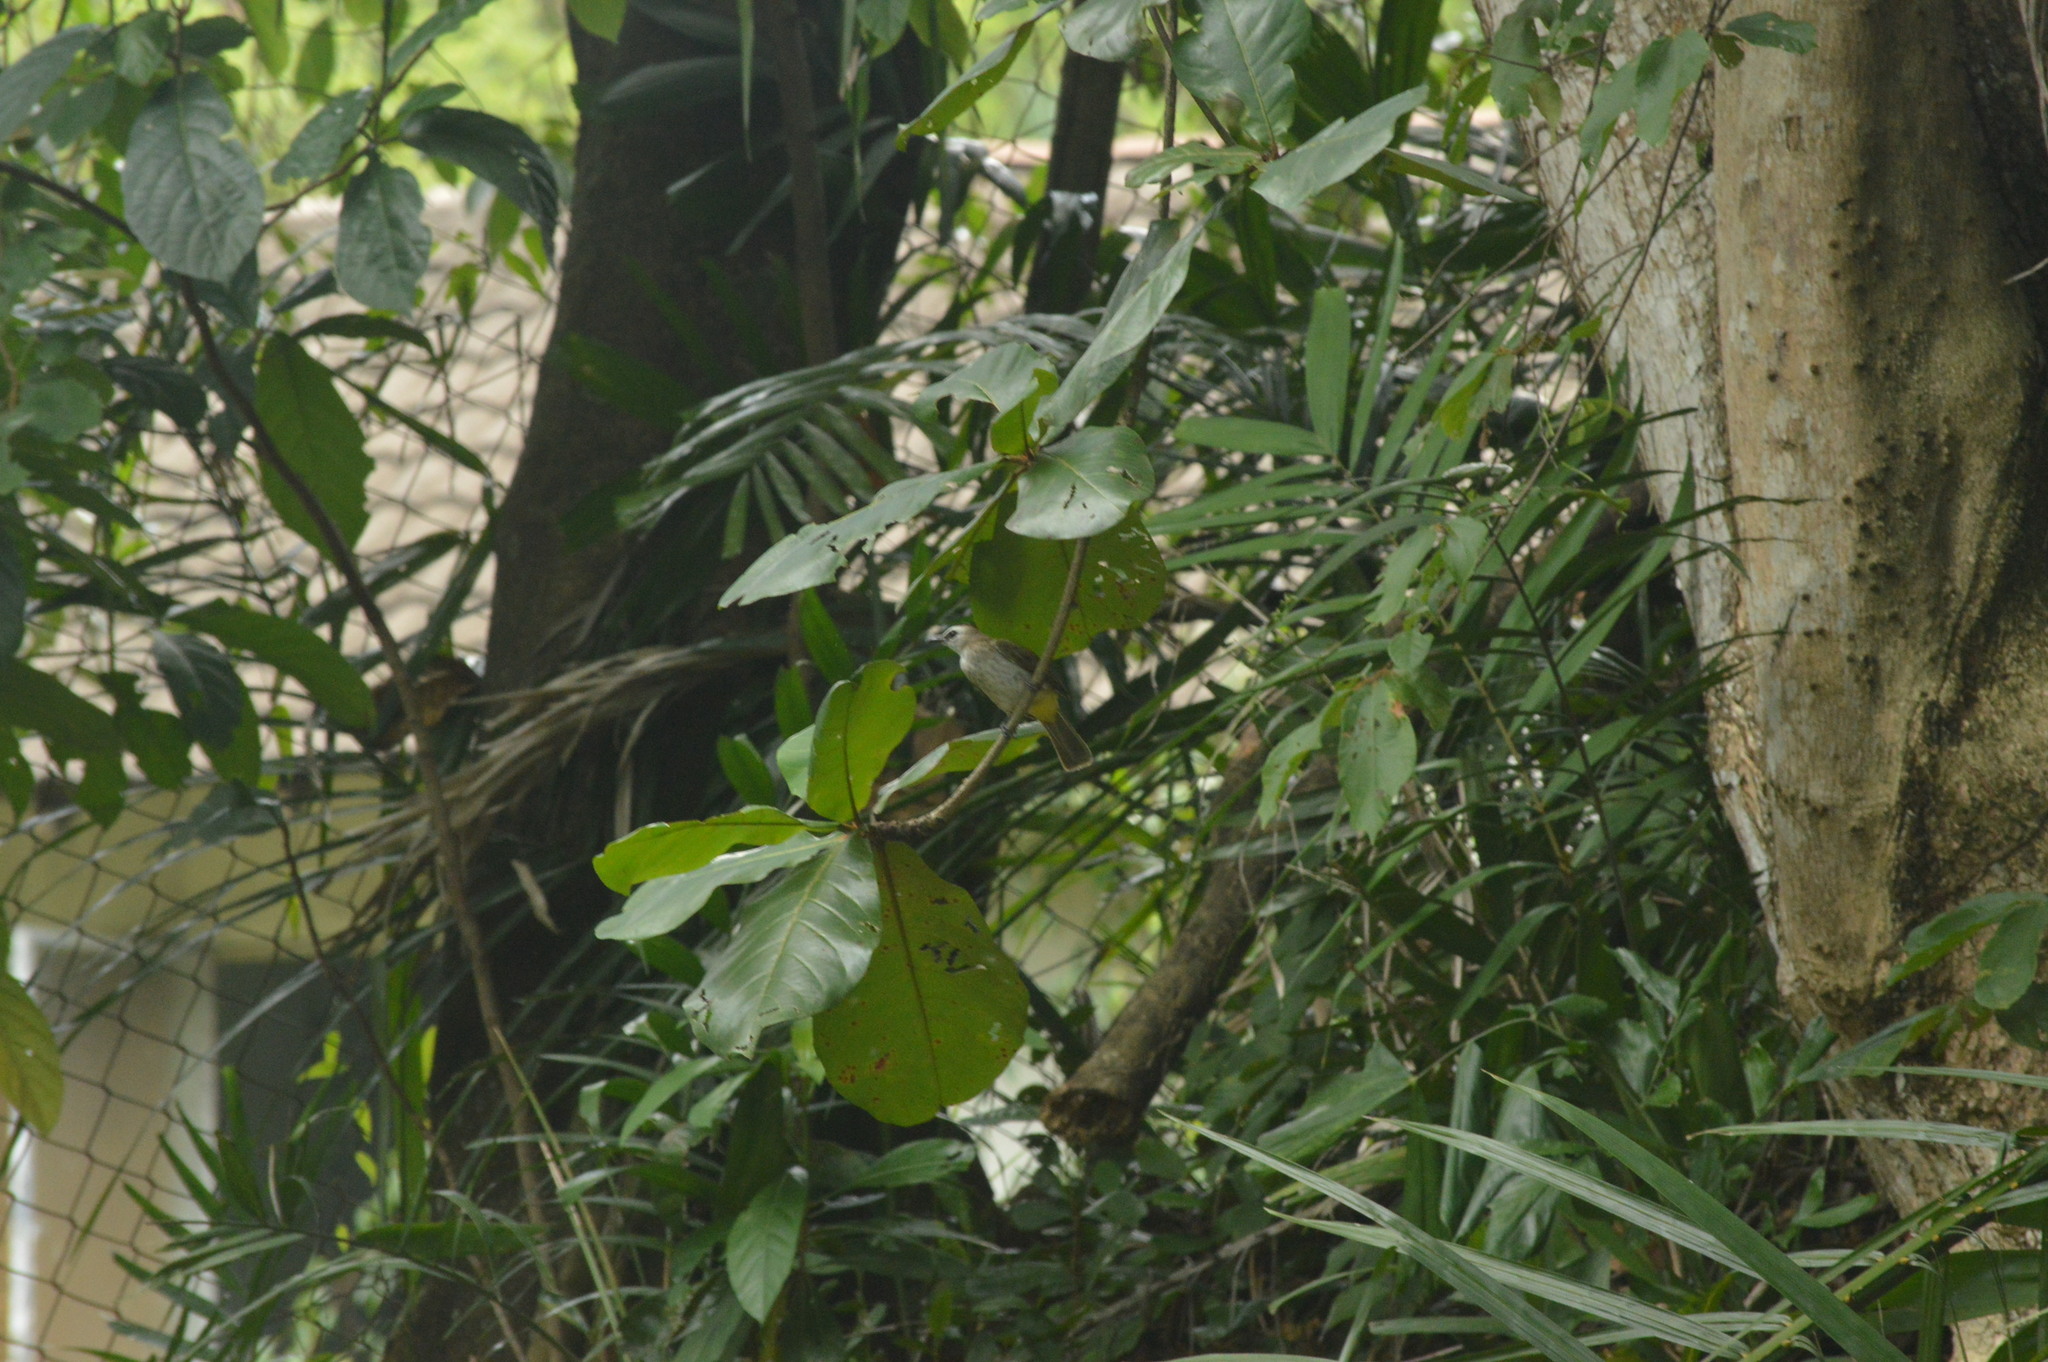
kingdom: Animalia
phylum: Chordata
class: Aves
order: Passeriformes
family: Pycnonotidae
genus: Pycnonotus
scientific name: Pycnonotus goiavier
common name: Yellow-vented bulbul
